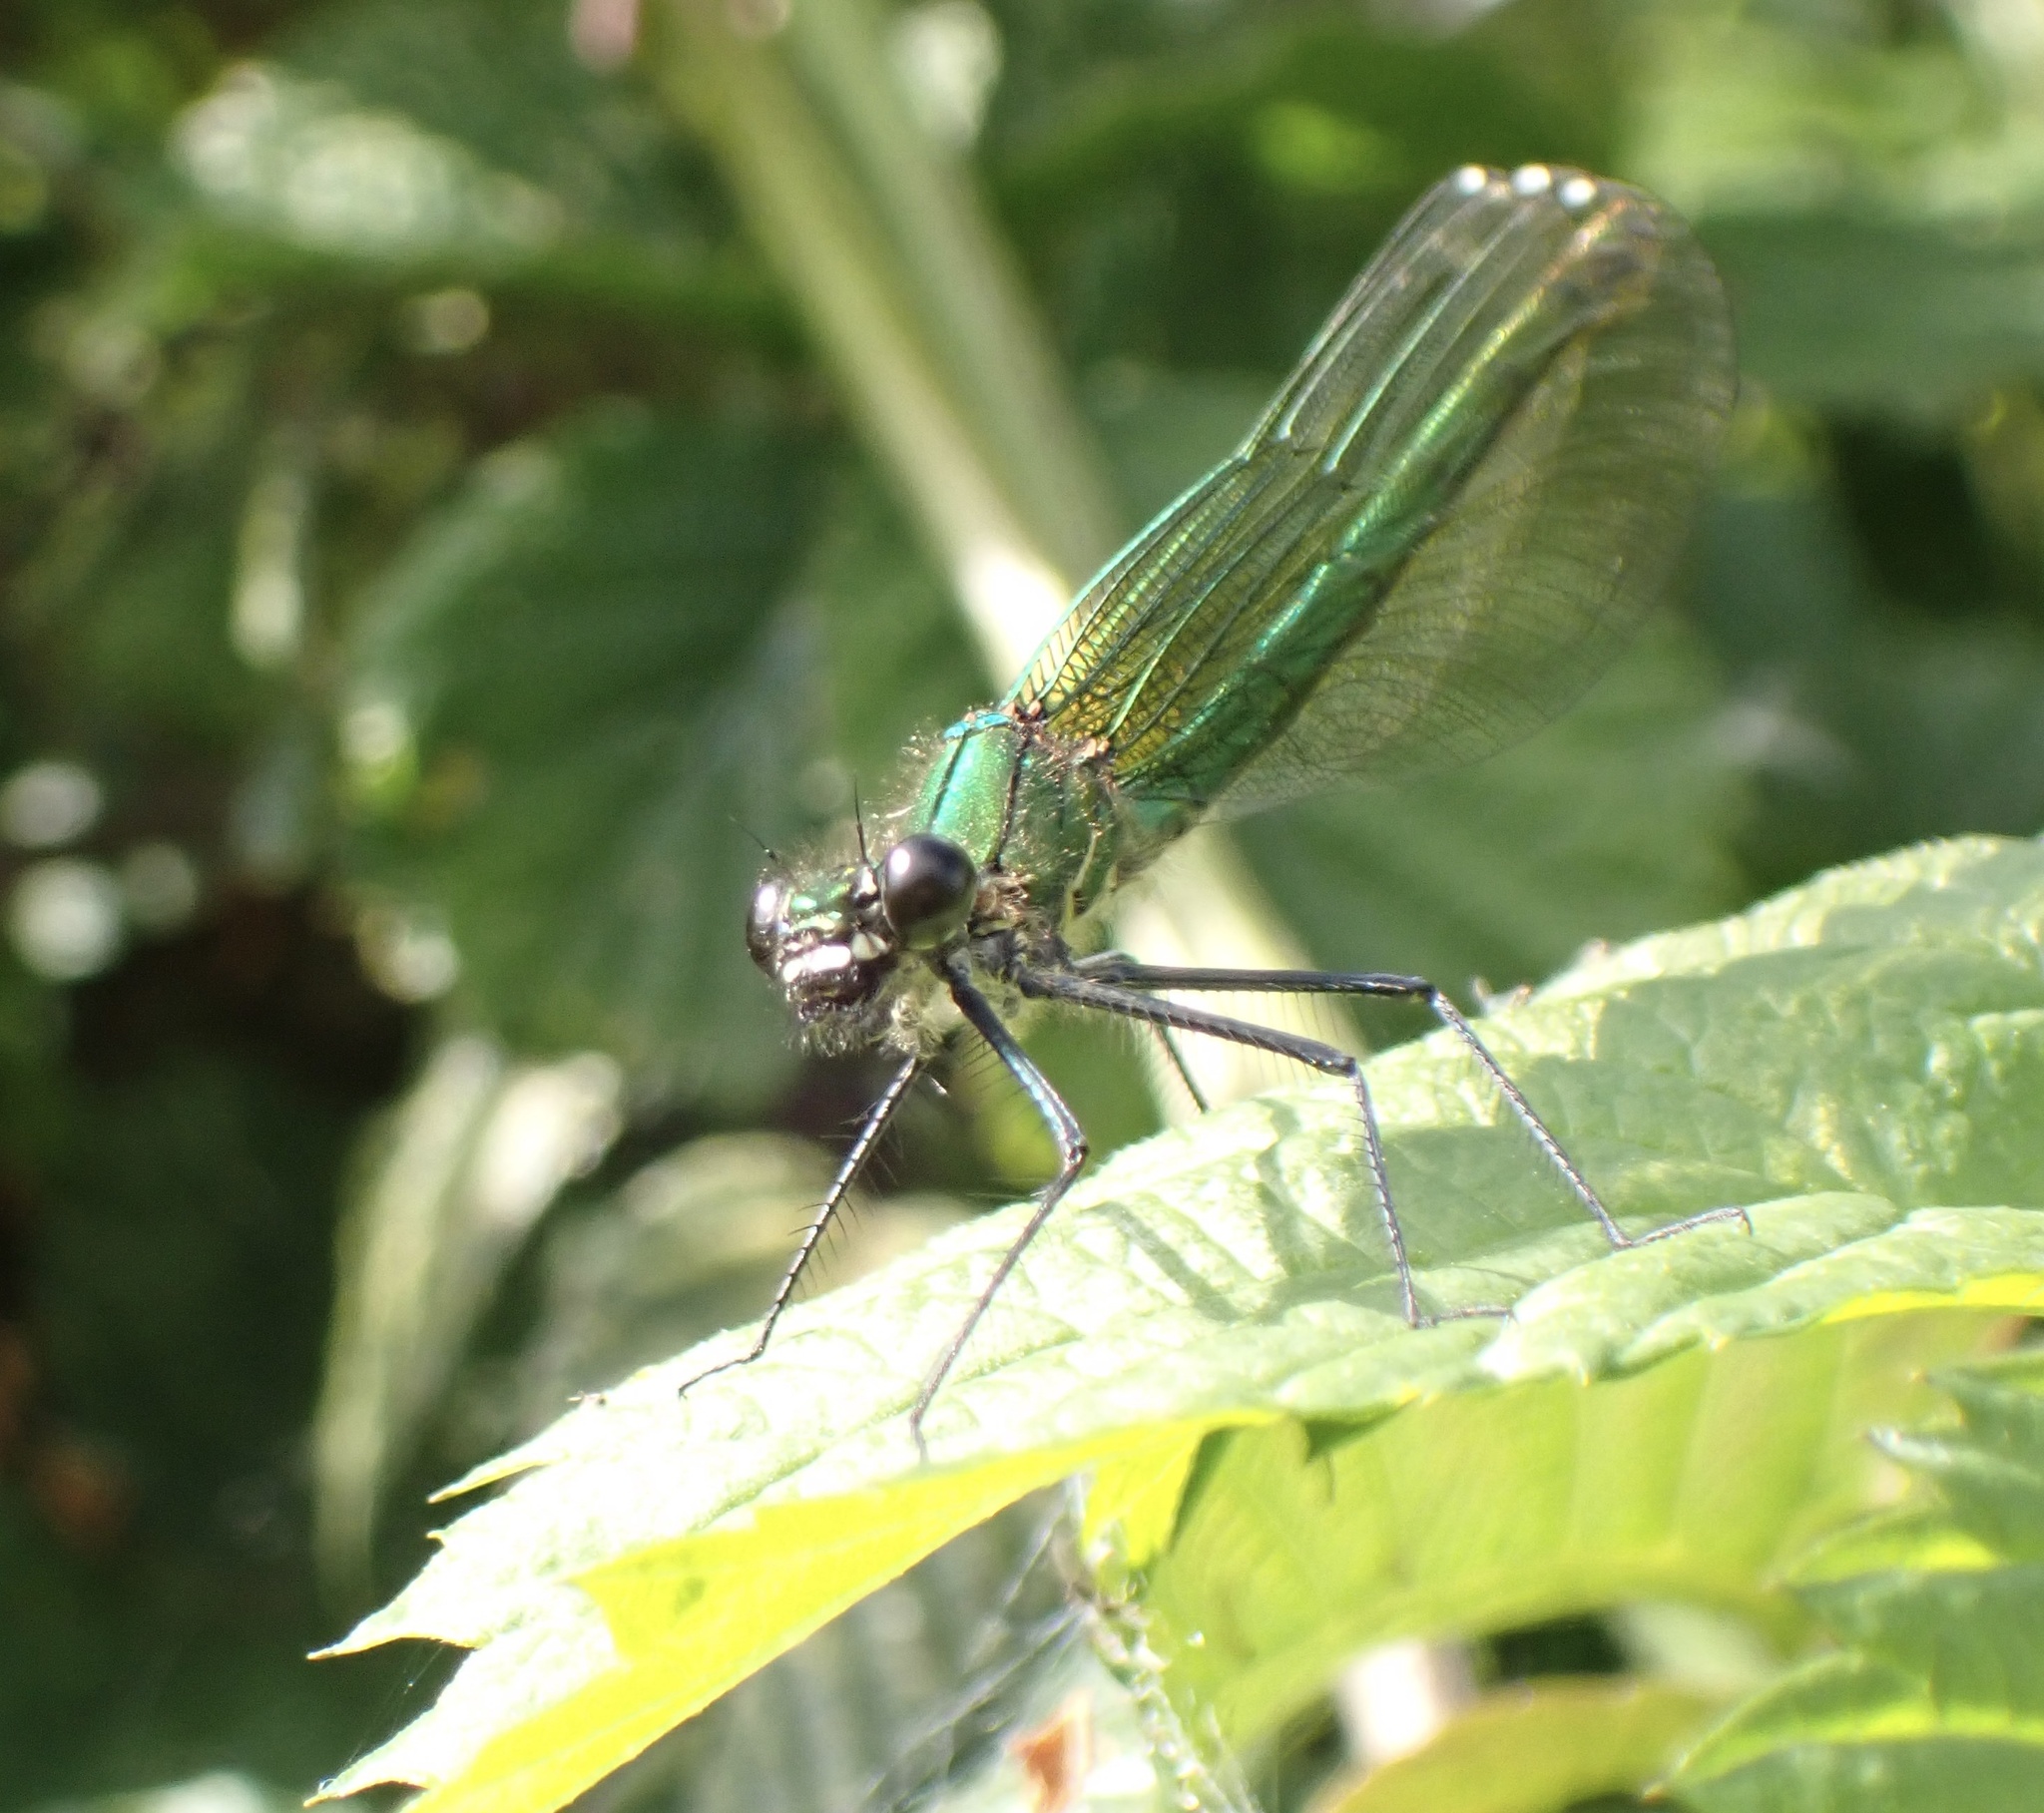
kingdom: Animalia
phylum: Arthropoda
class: Insecta
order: Odonata
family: Calopterygidae
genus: Calopteryx
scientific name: Calopteryx splendens
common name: Banded demoiselle
